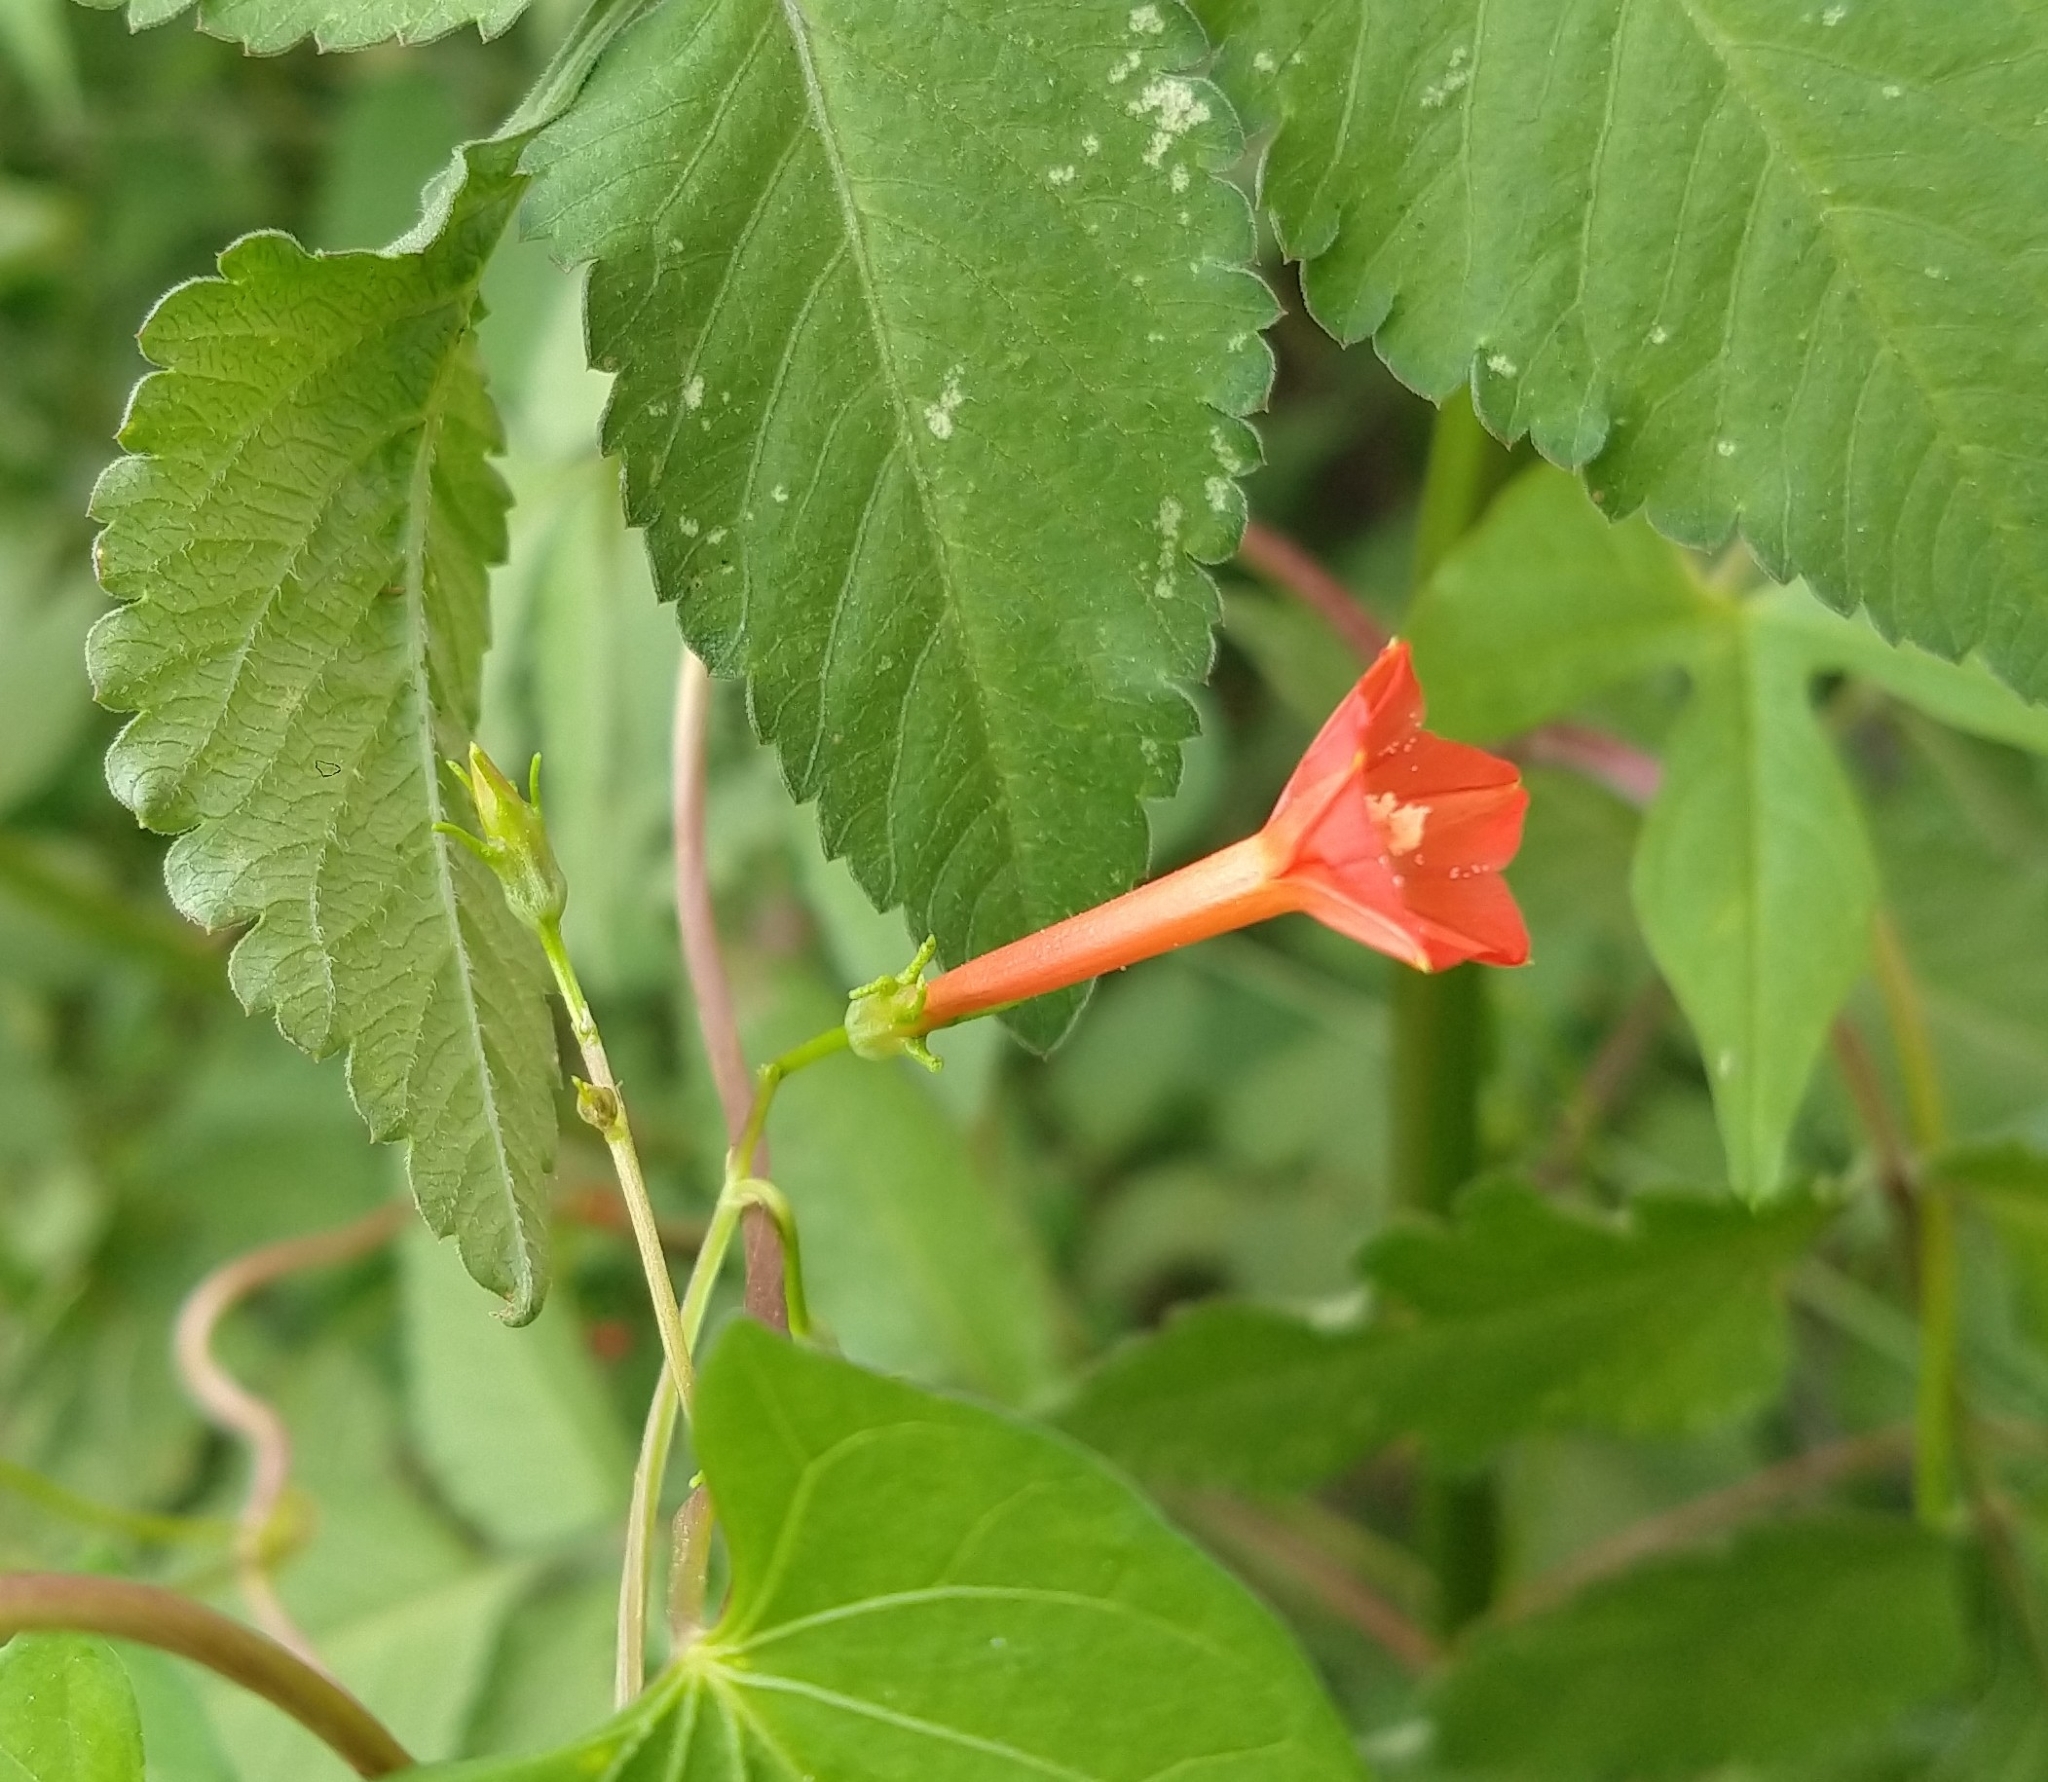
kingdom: Plantae
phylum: Tracheophyta
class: Magnoliopsida
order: Solanales
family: Convolvulaceae
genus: Ipomoea
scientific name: Ipomoea cristulata
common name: Trans-pecos morning-glory
